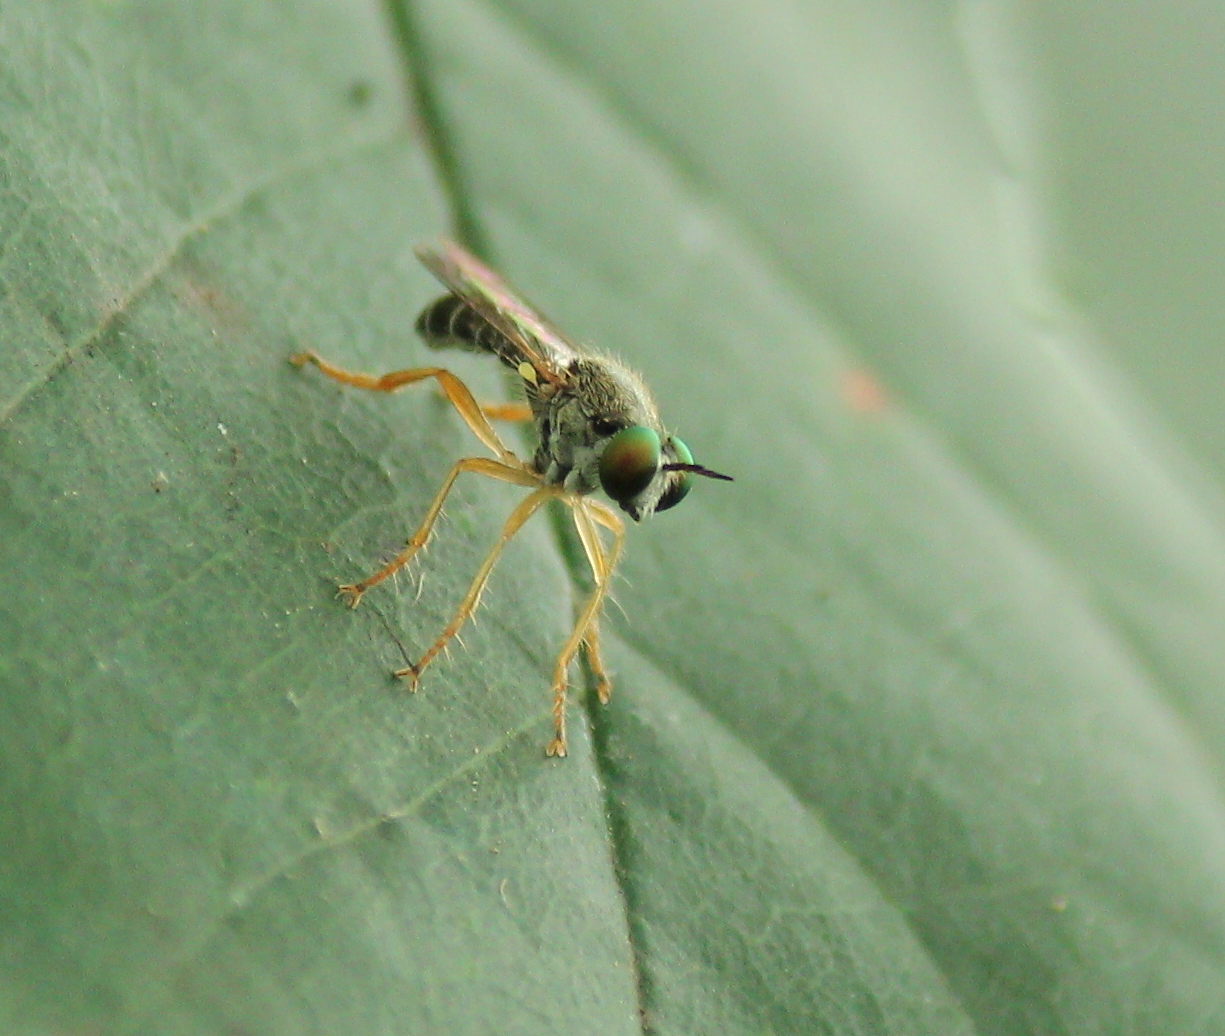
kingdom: Animalia
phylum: Arthropoda
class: Insecta
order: Diptera
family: Asilidae
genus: Atomosia
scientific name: Atomosia sayii
